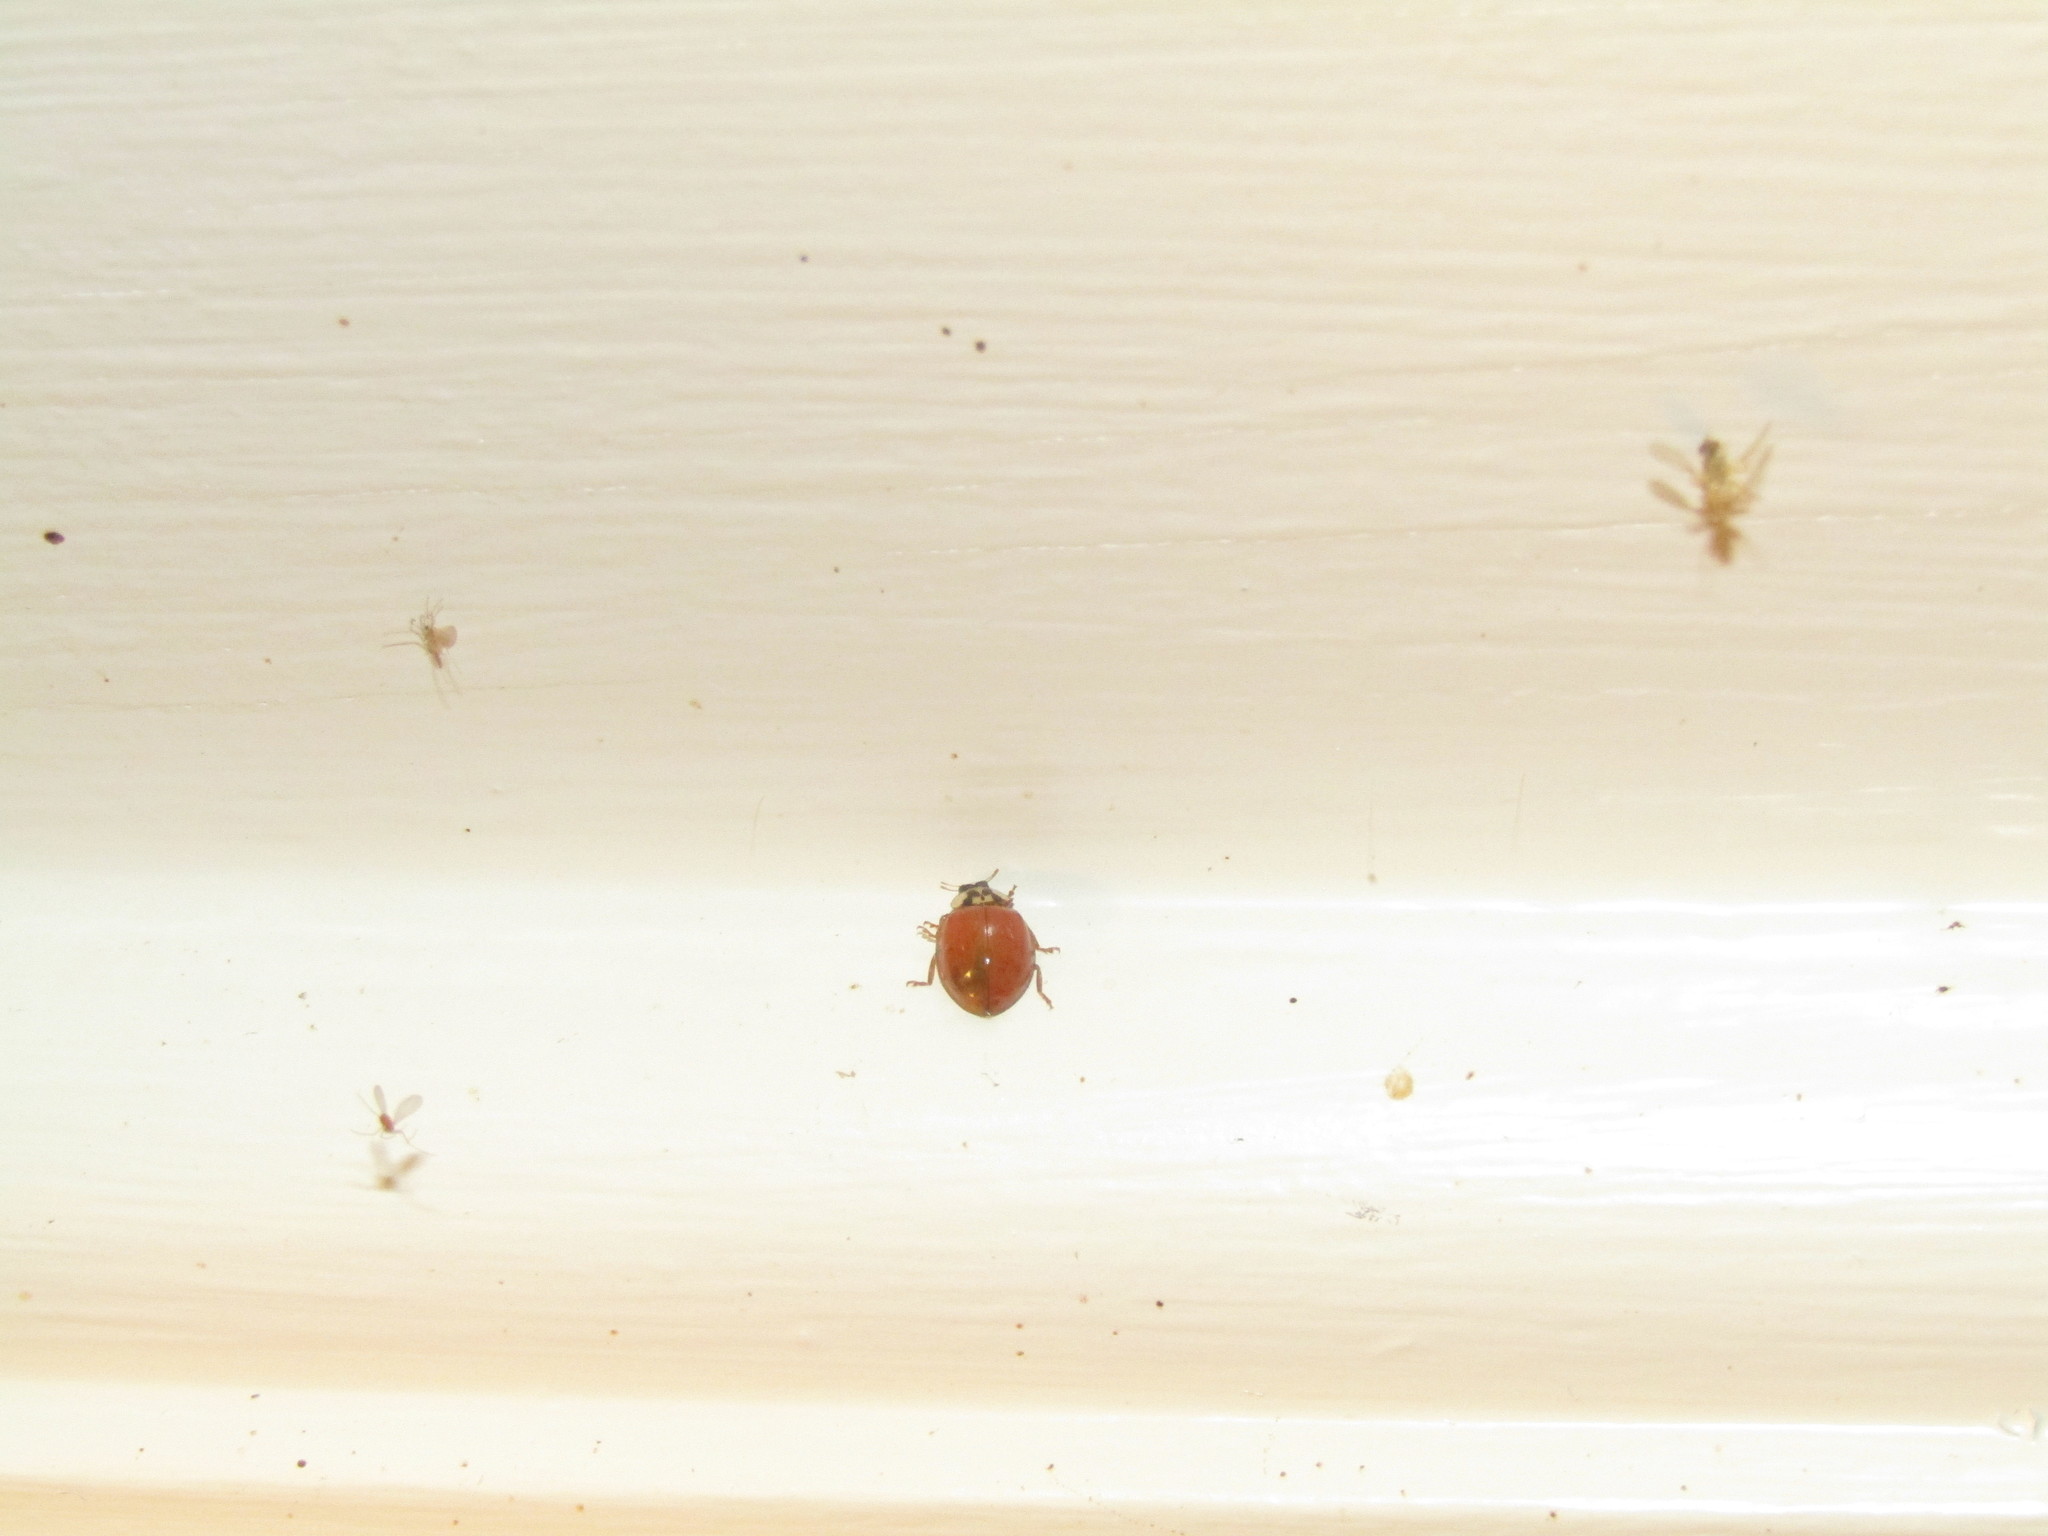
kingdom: Animalia
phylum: Arthropoda
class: Insecta
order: Coleoptera
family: Coccinellidae
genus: Harmonia
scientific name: Harmonia axyridis
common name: Harlequin ladybird
